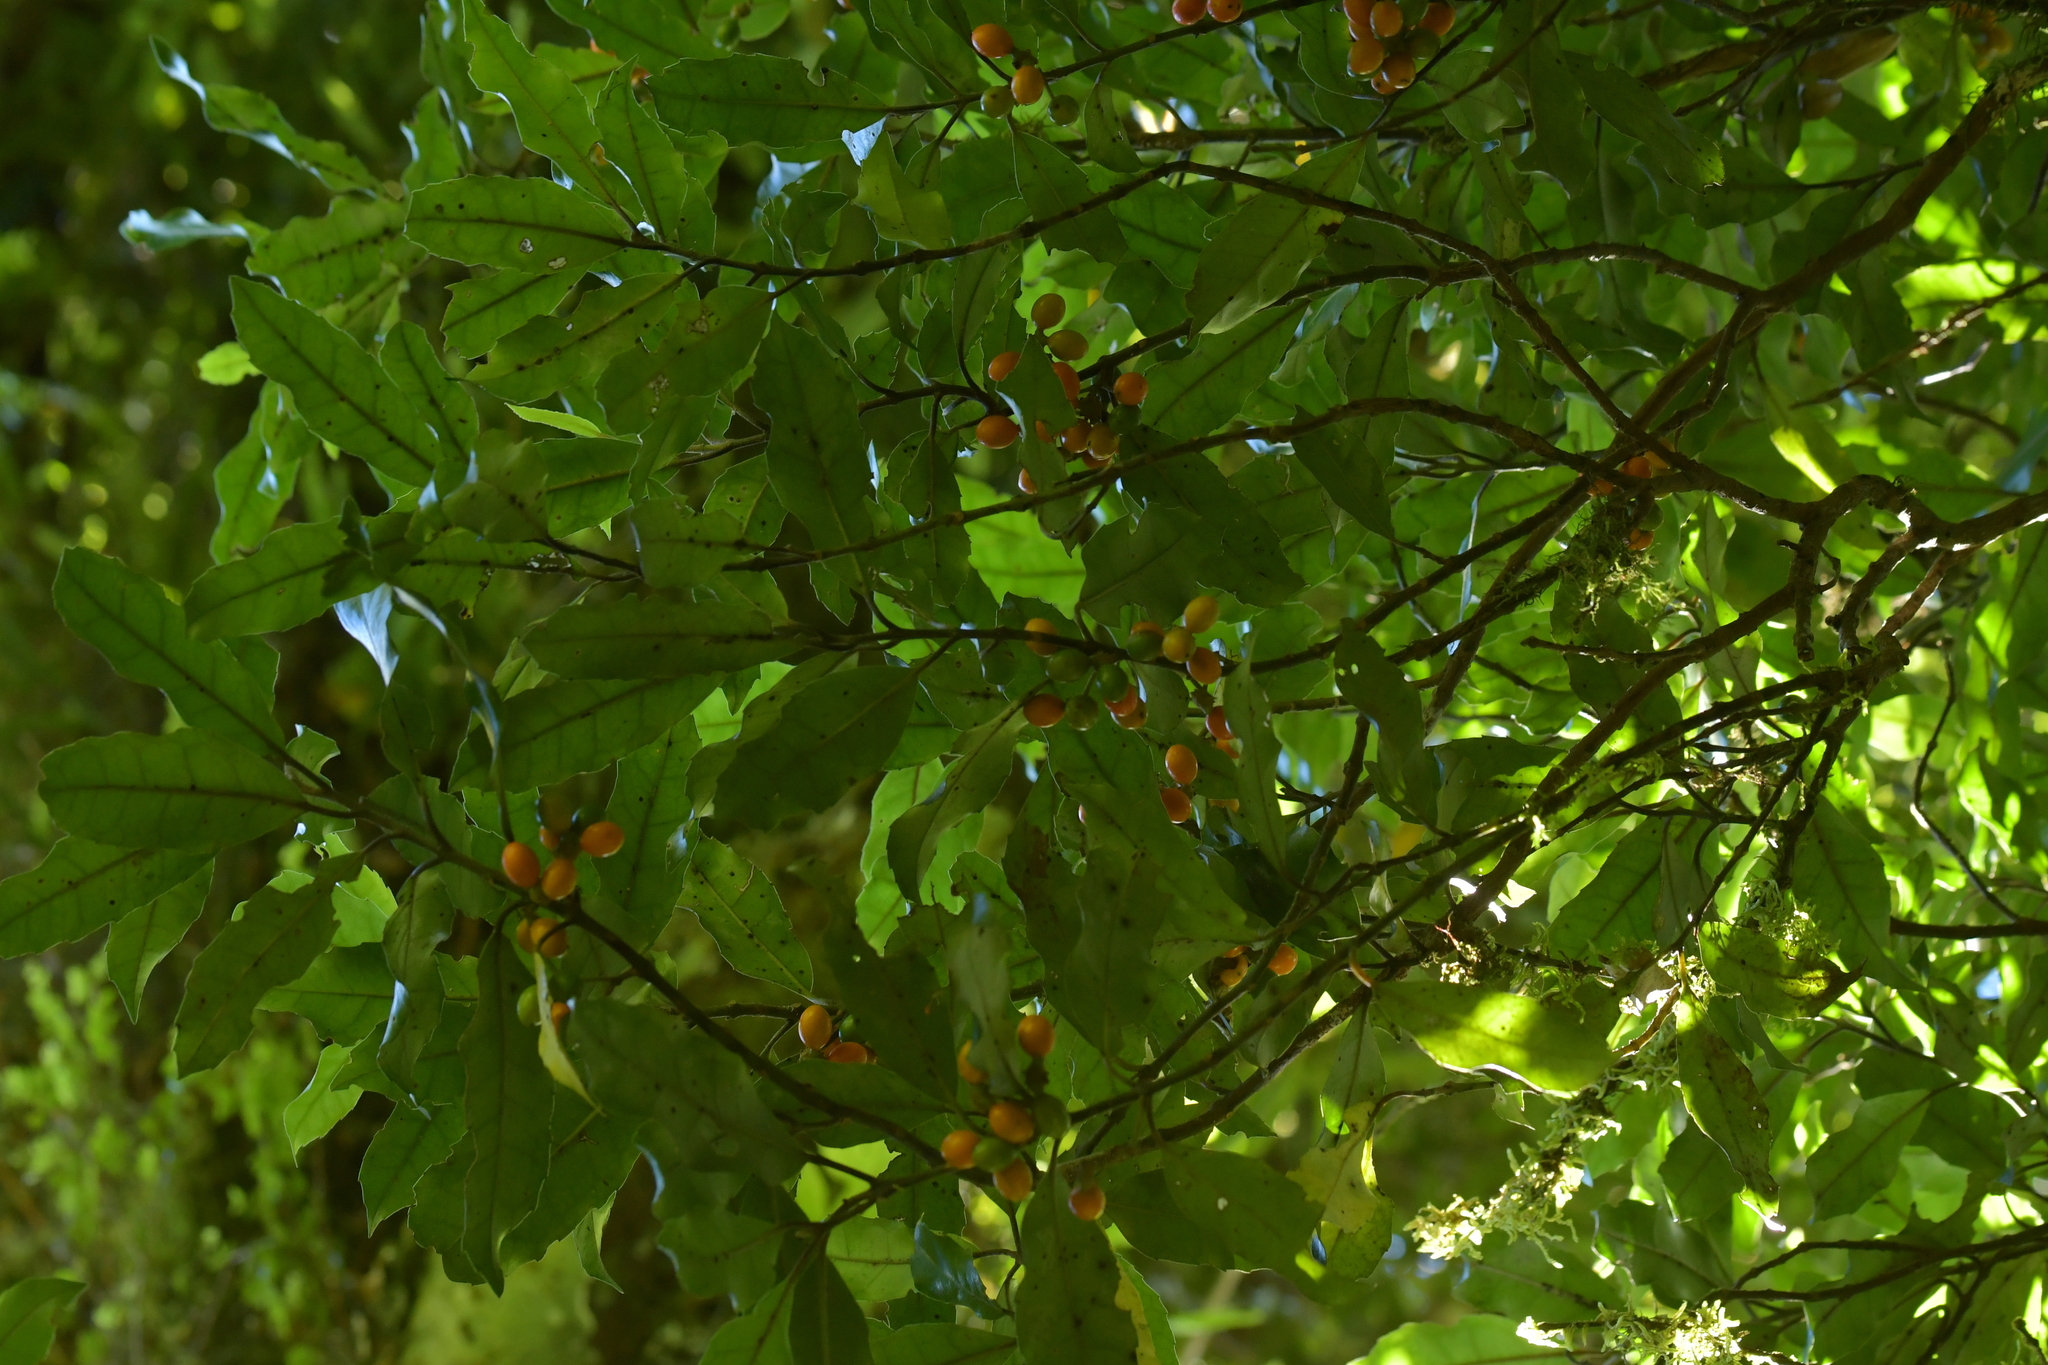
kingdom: Plantae
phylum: Tracheophyta
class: Magnoliopsida
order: Laurales
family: Monimiaceae
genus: Hedycarya
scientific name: Hedycarya arborea
